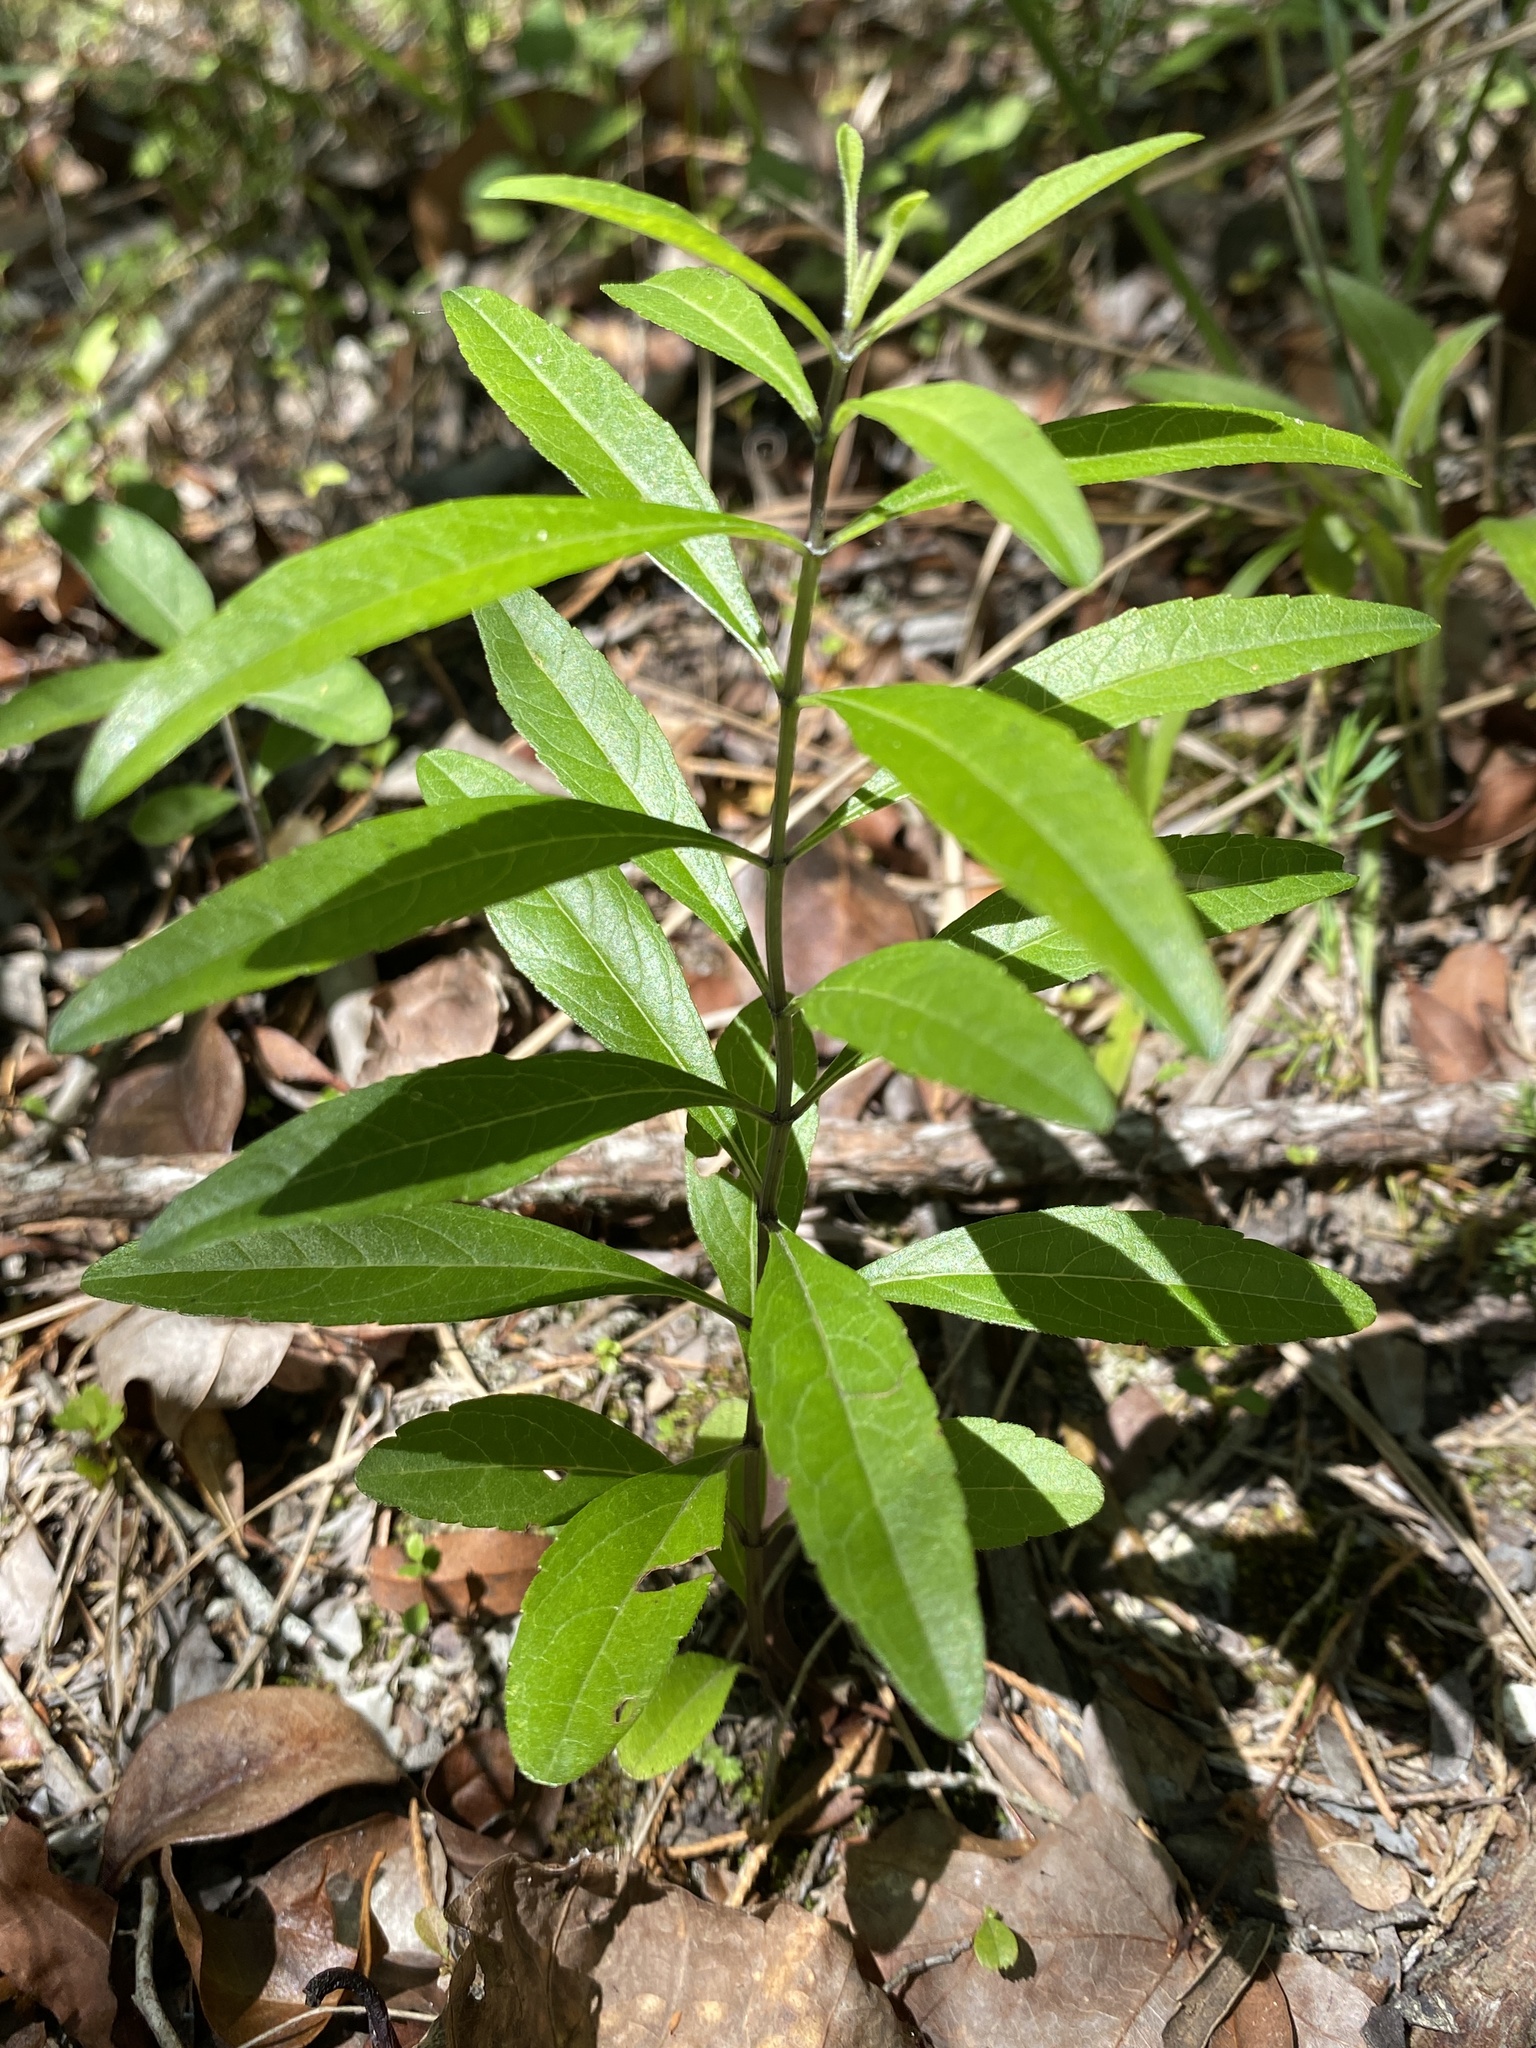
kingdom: Plantae
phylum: Tracheophyta
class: Magnoliopsida
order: Lamiales
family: Lamiaceae
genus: Salvia
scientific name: Salvia azurea
